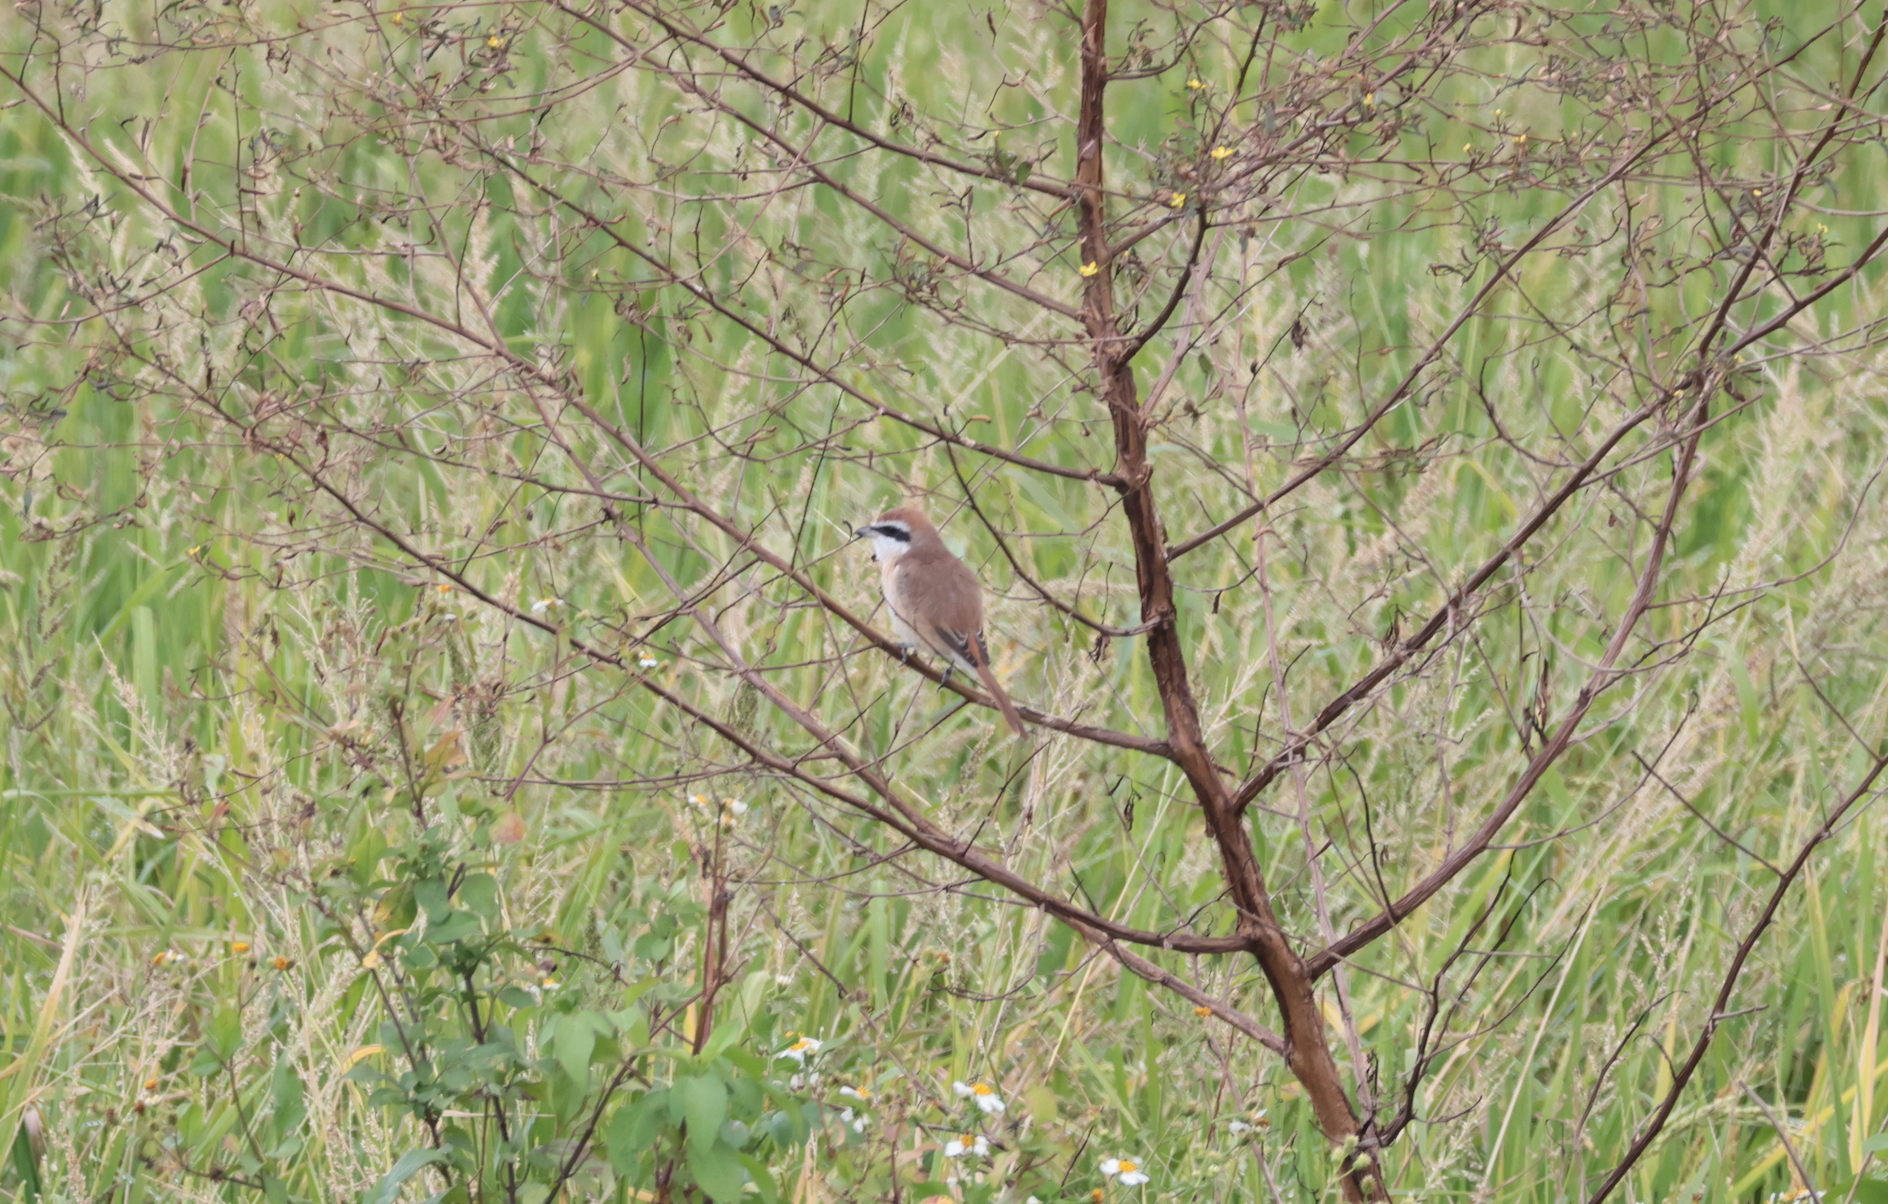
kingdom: Animalia
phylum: Chordata
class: Aves
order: Passeriformes
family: Laniidae
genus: Lanius
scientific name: Lanius cristatus
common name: Brown shrike
